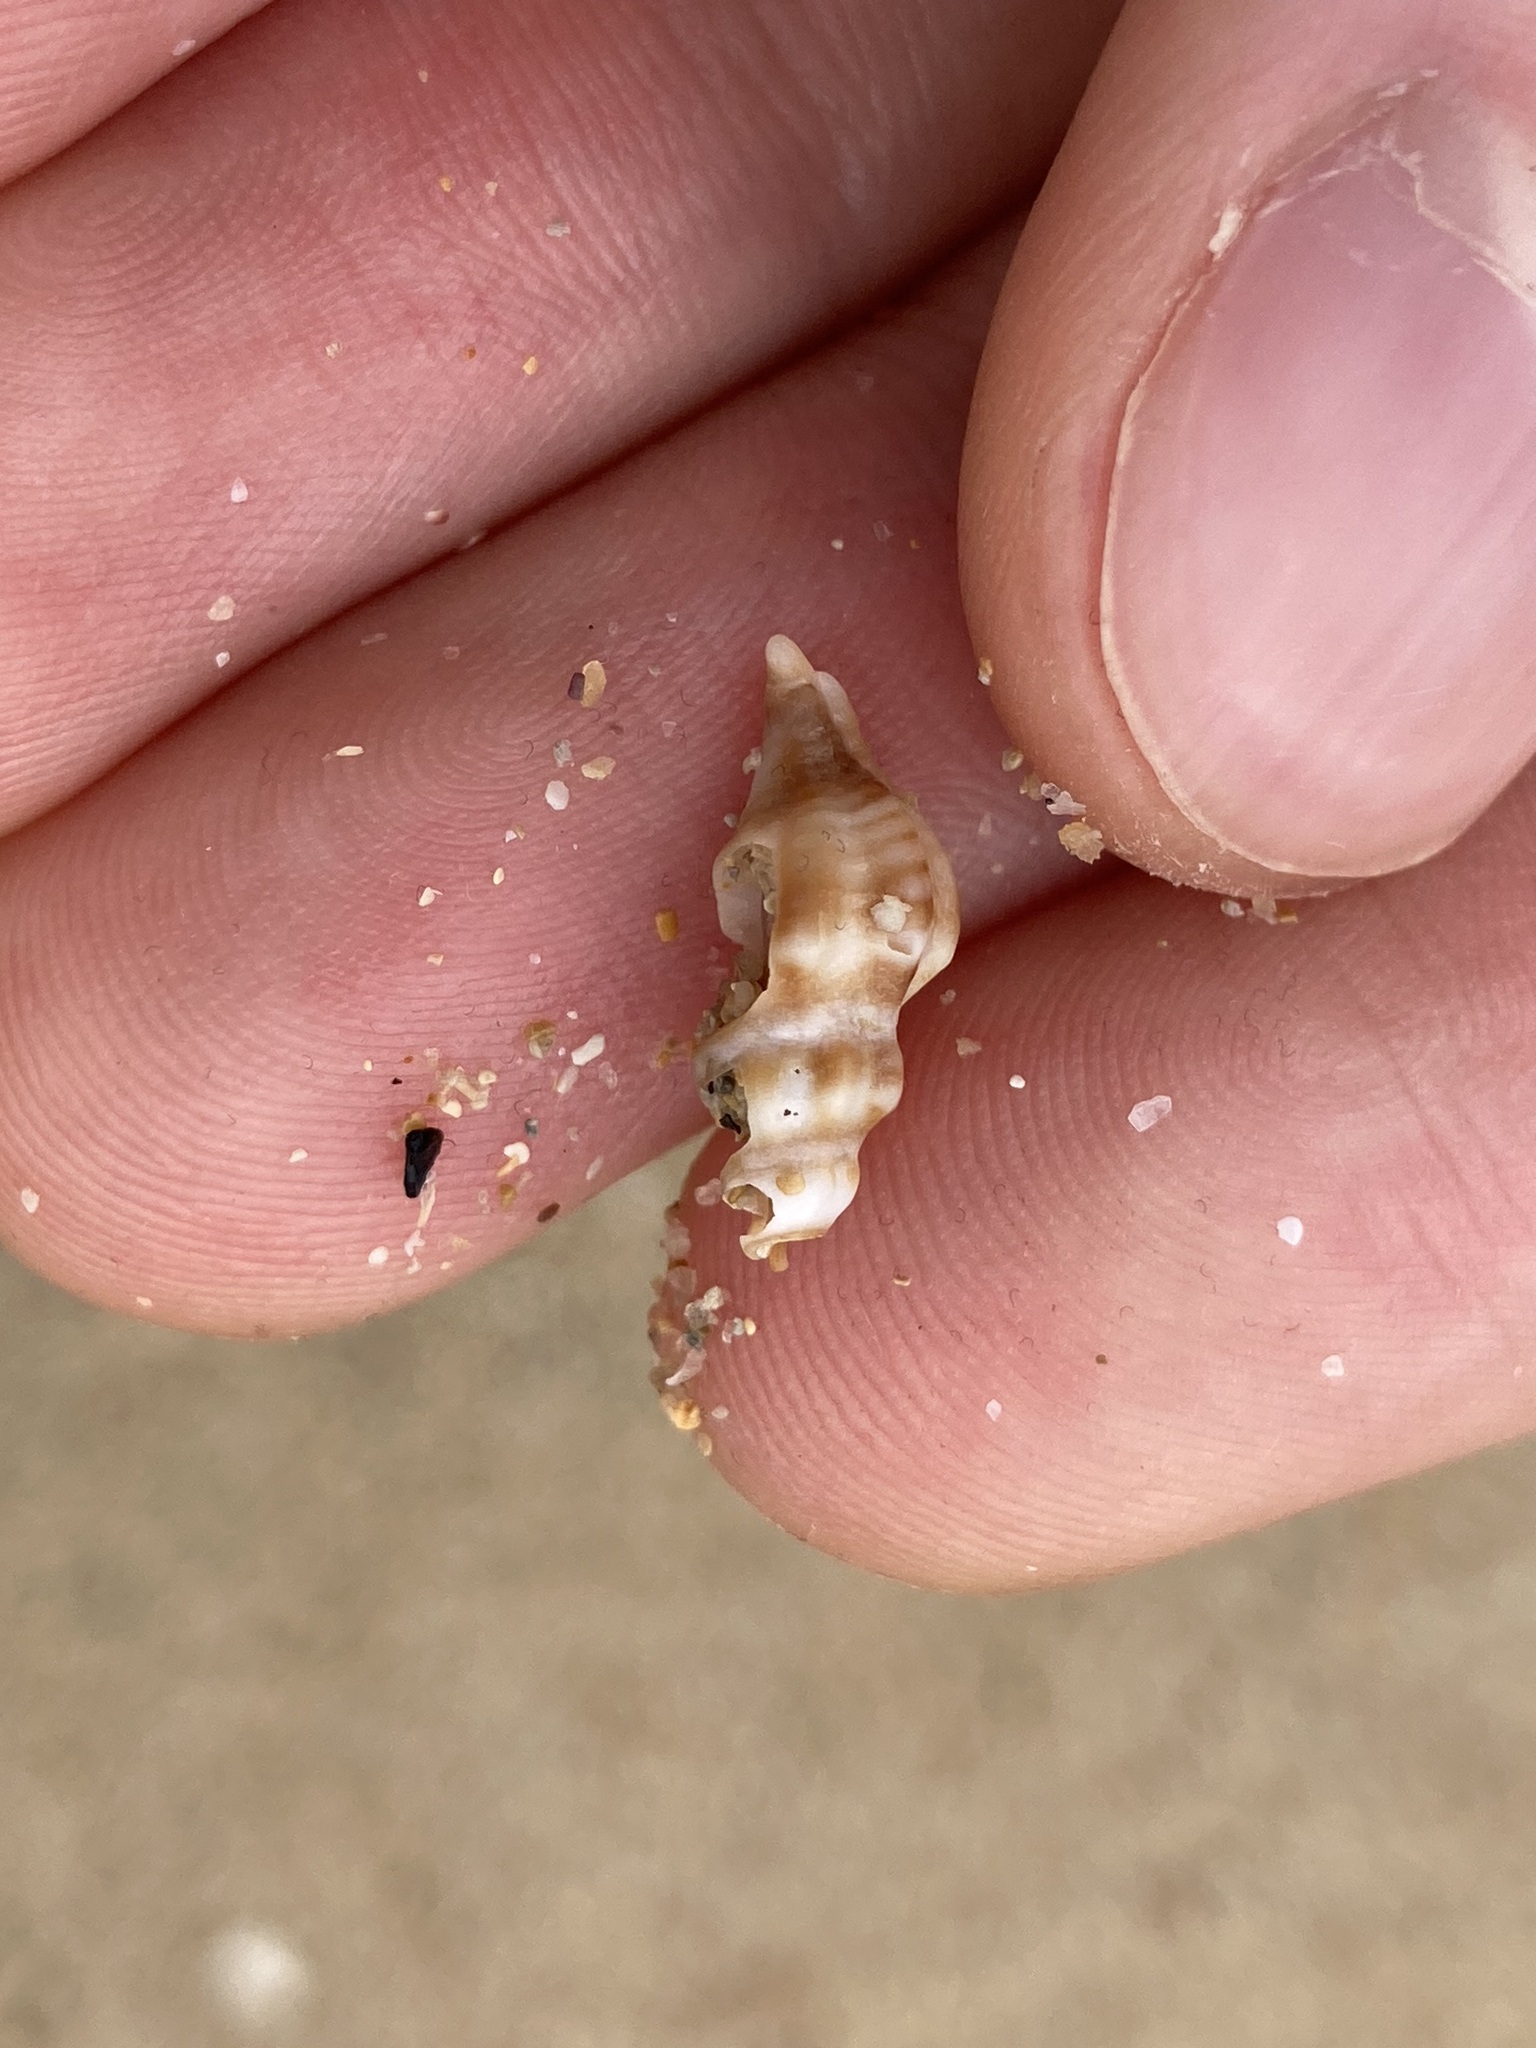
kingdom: Animalia
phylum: Mollusca
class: Gastropoda
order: Neogastropoda
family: Muricidae
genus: Bedeva
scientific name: Bedeva paivae
